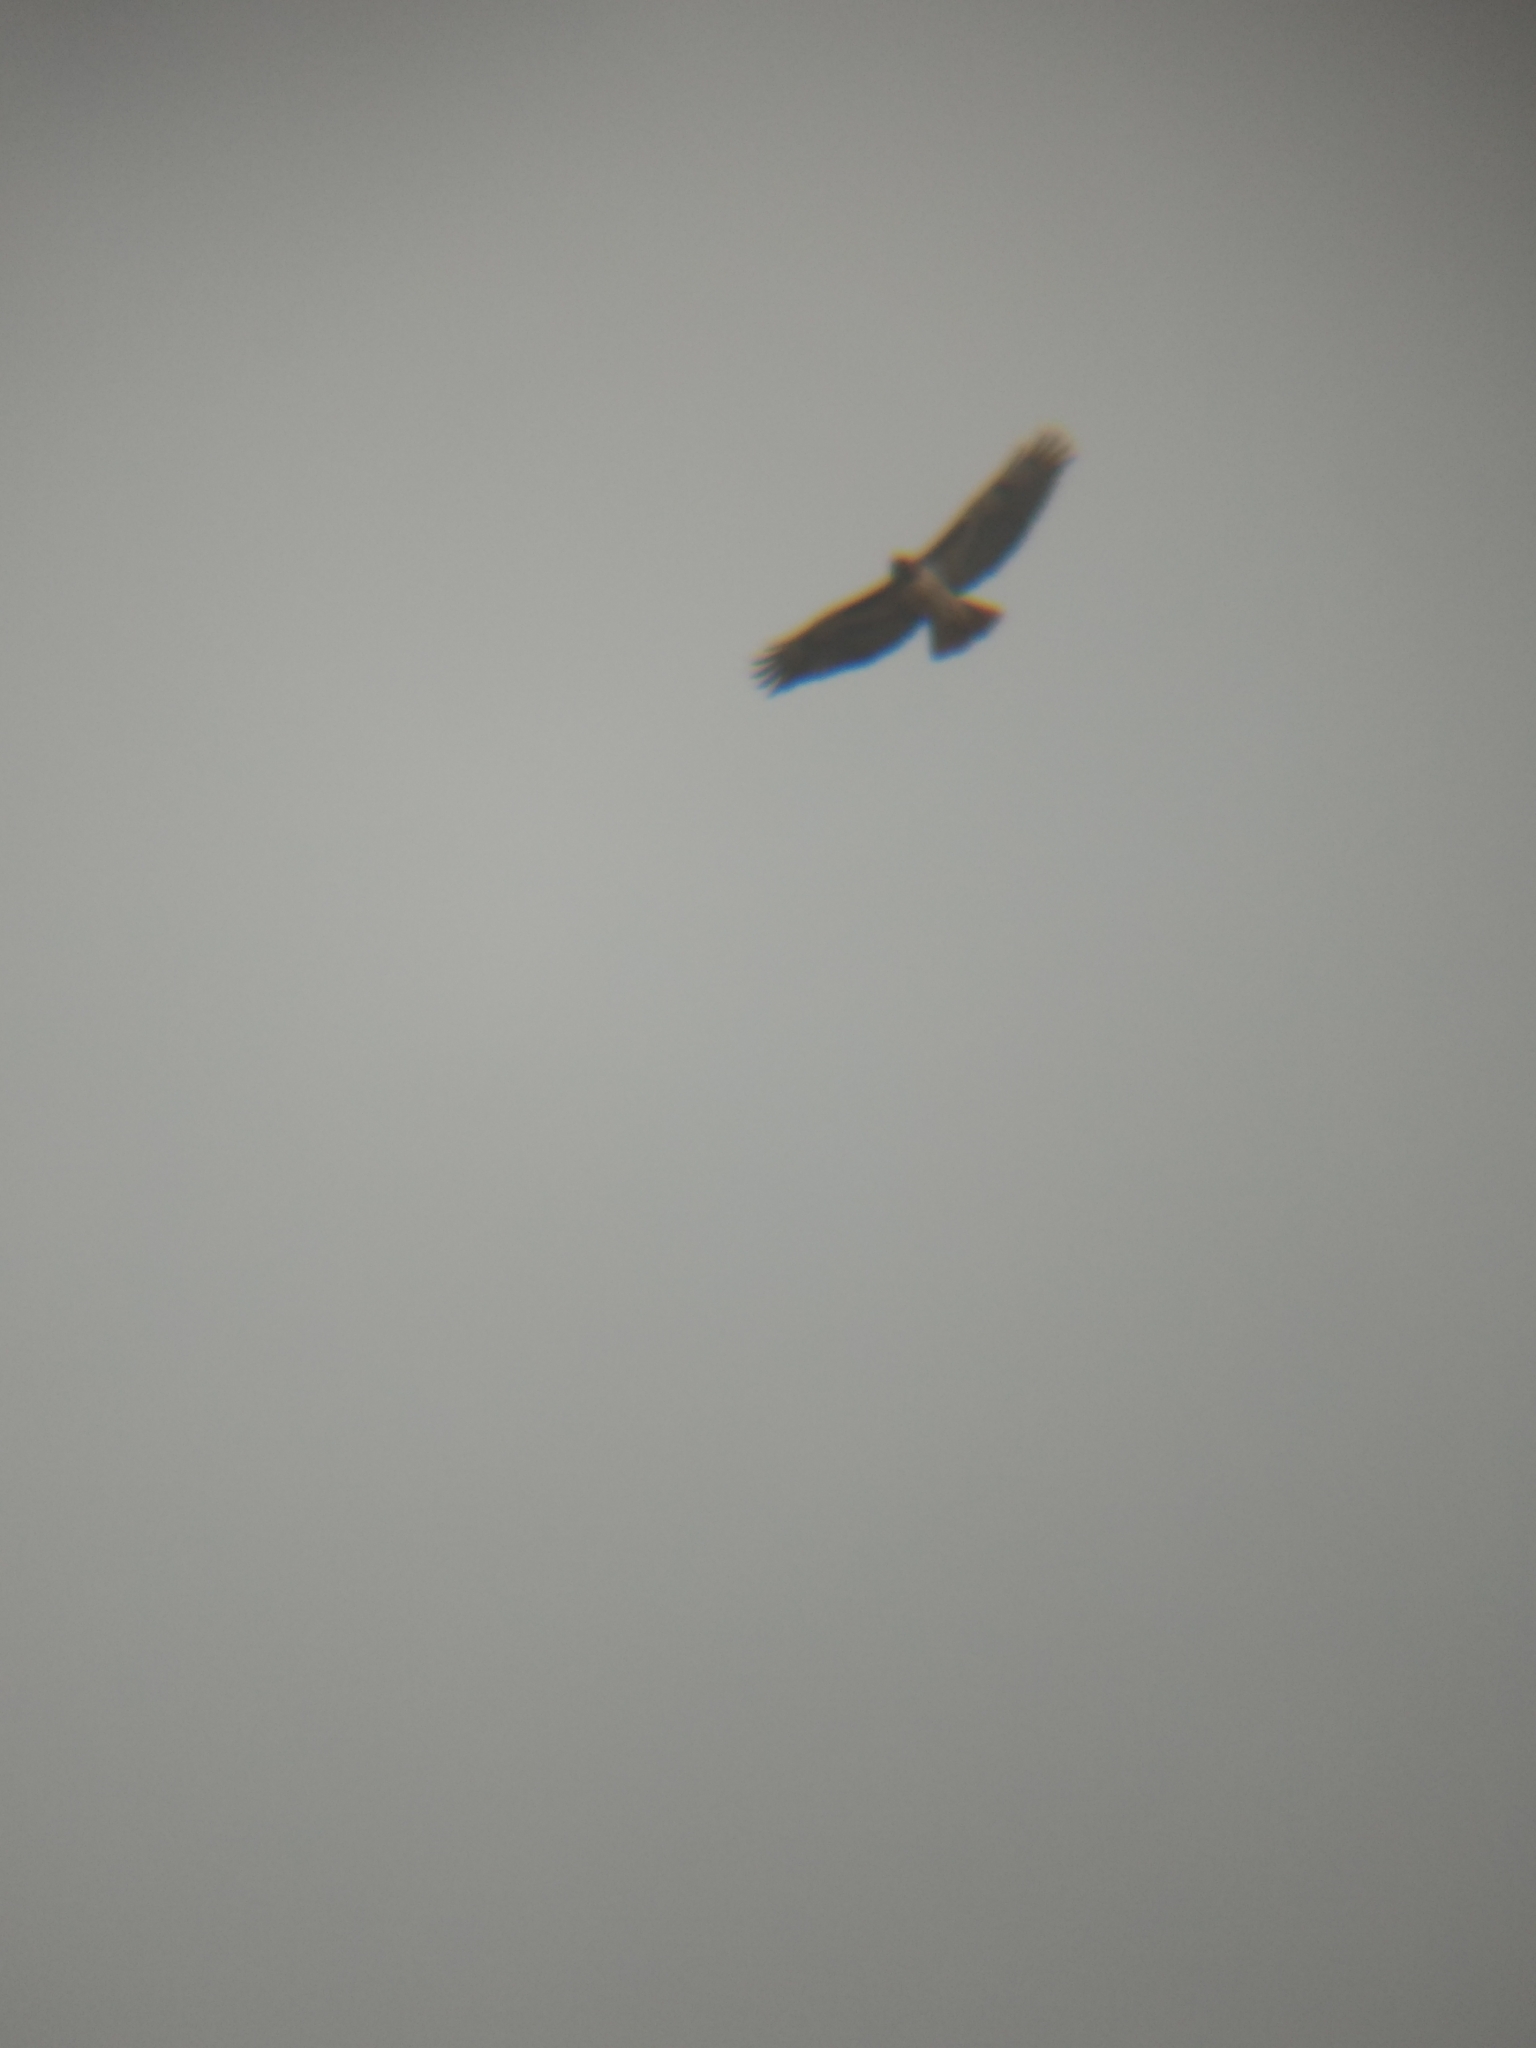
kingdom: Animalia
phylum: Chordata
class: Aves
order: Accipitriformes
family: Accipitridae
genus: Buteo
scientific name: Buteo jamaicensis
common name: Red-tailed hawk
